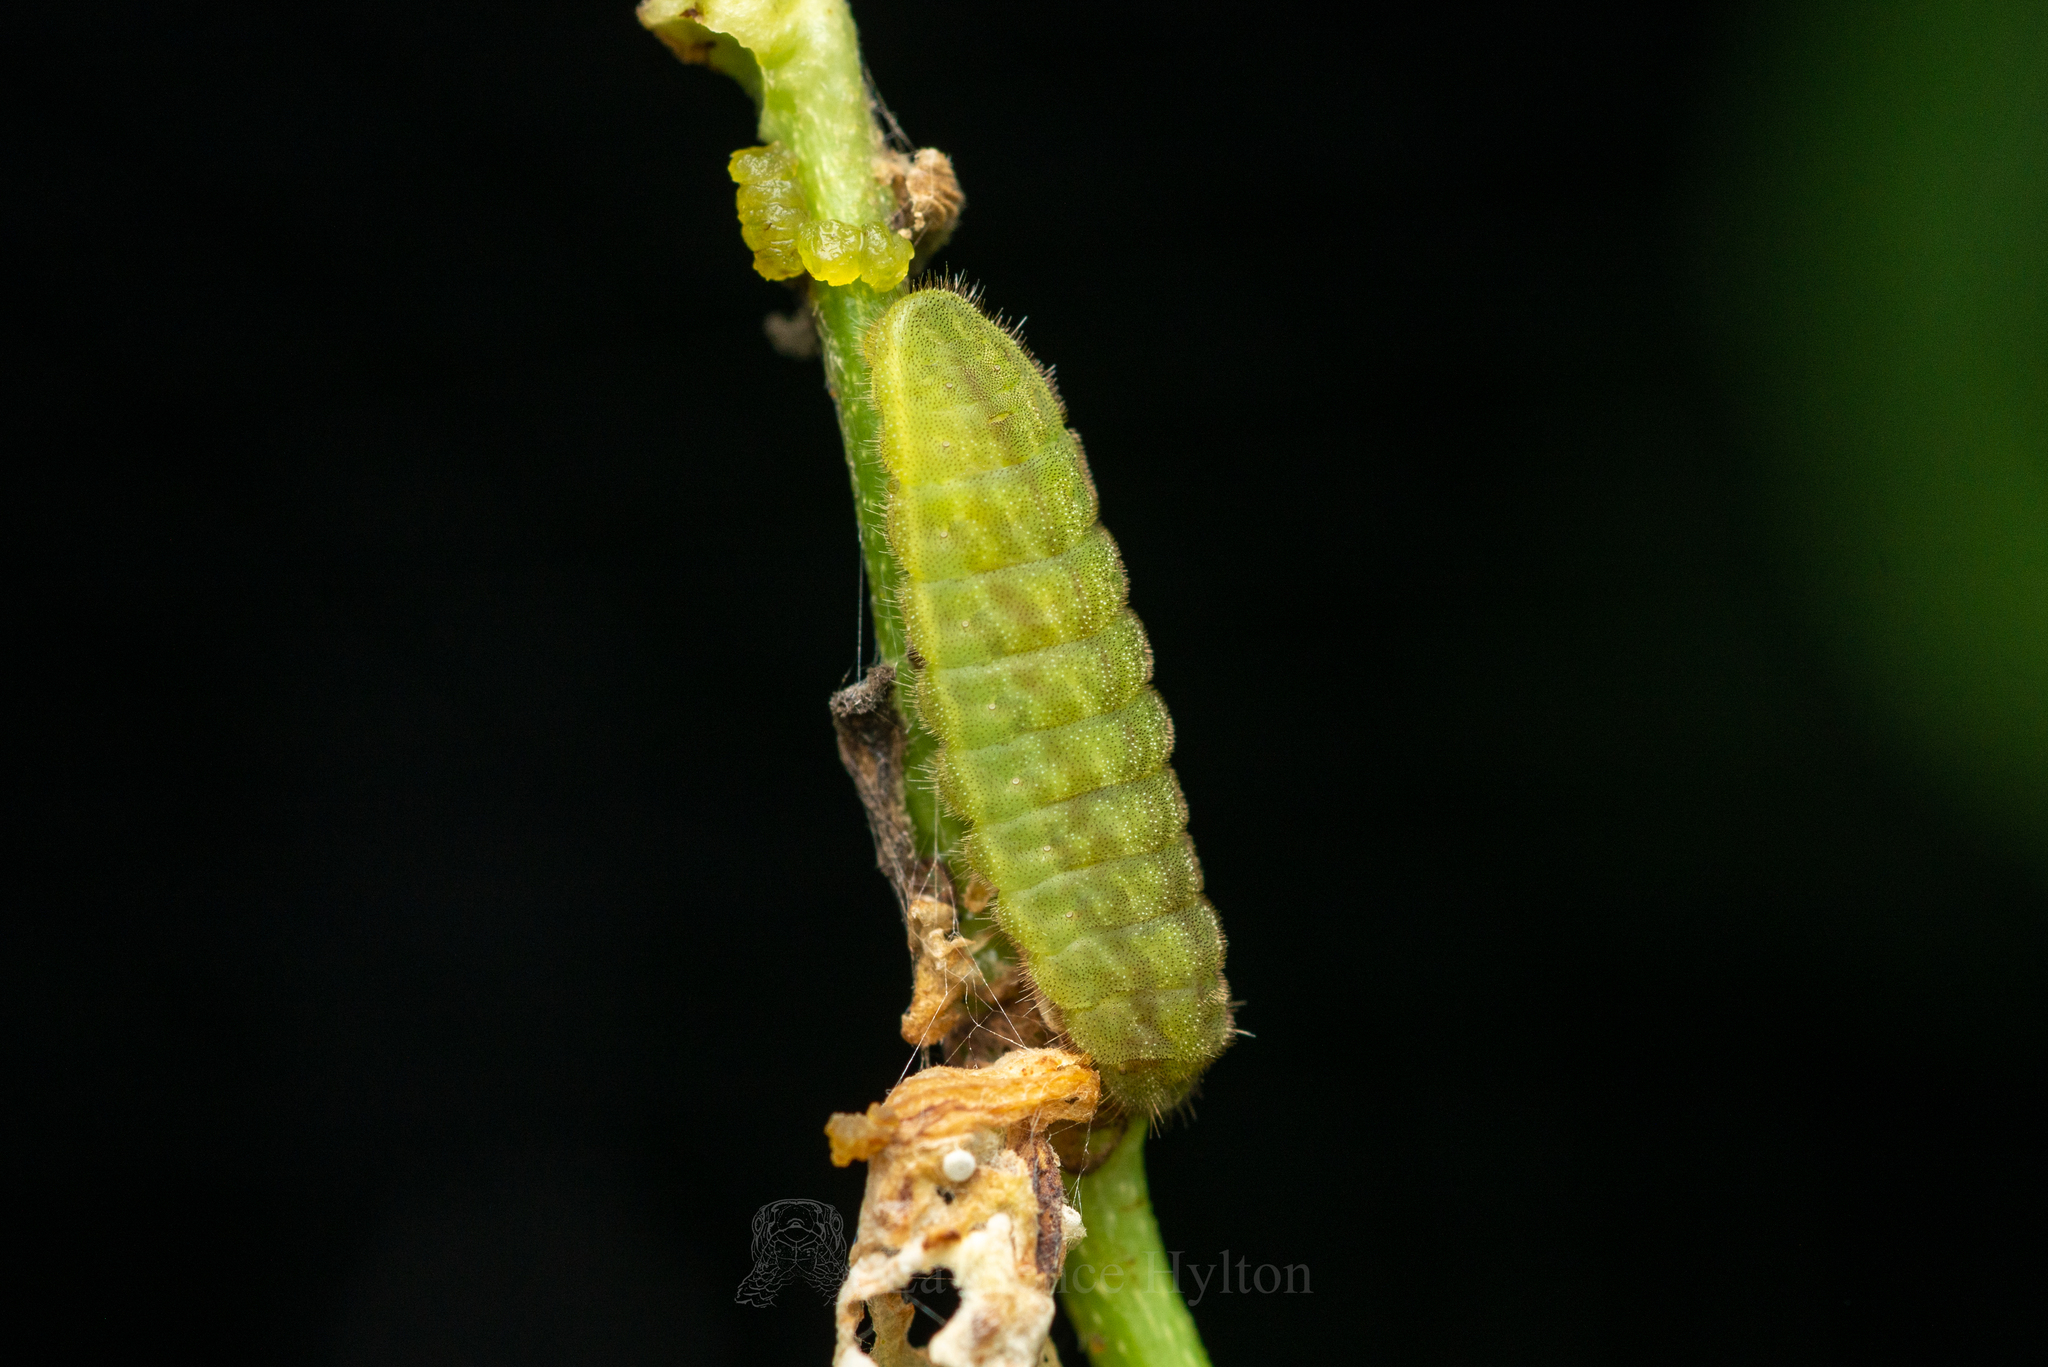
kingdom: Animalia
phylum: Arthropoda
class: Insecta
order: Lepidoptera
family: Lycaenidae
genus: Acytolepis
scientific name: Acytolepis puspa
